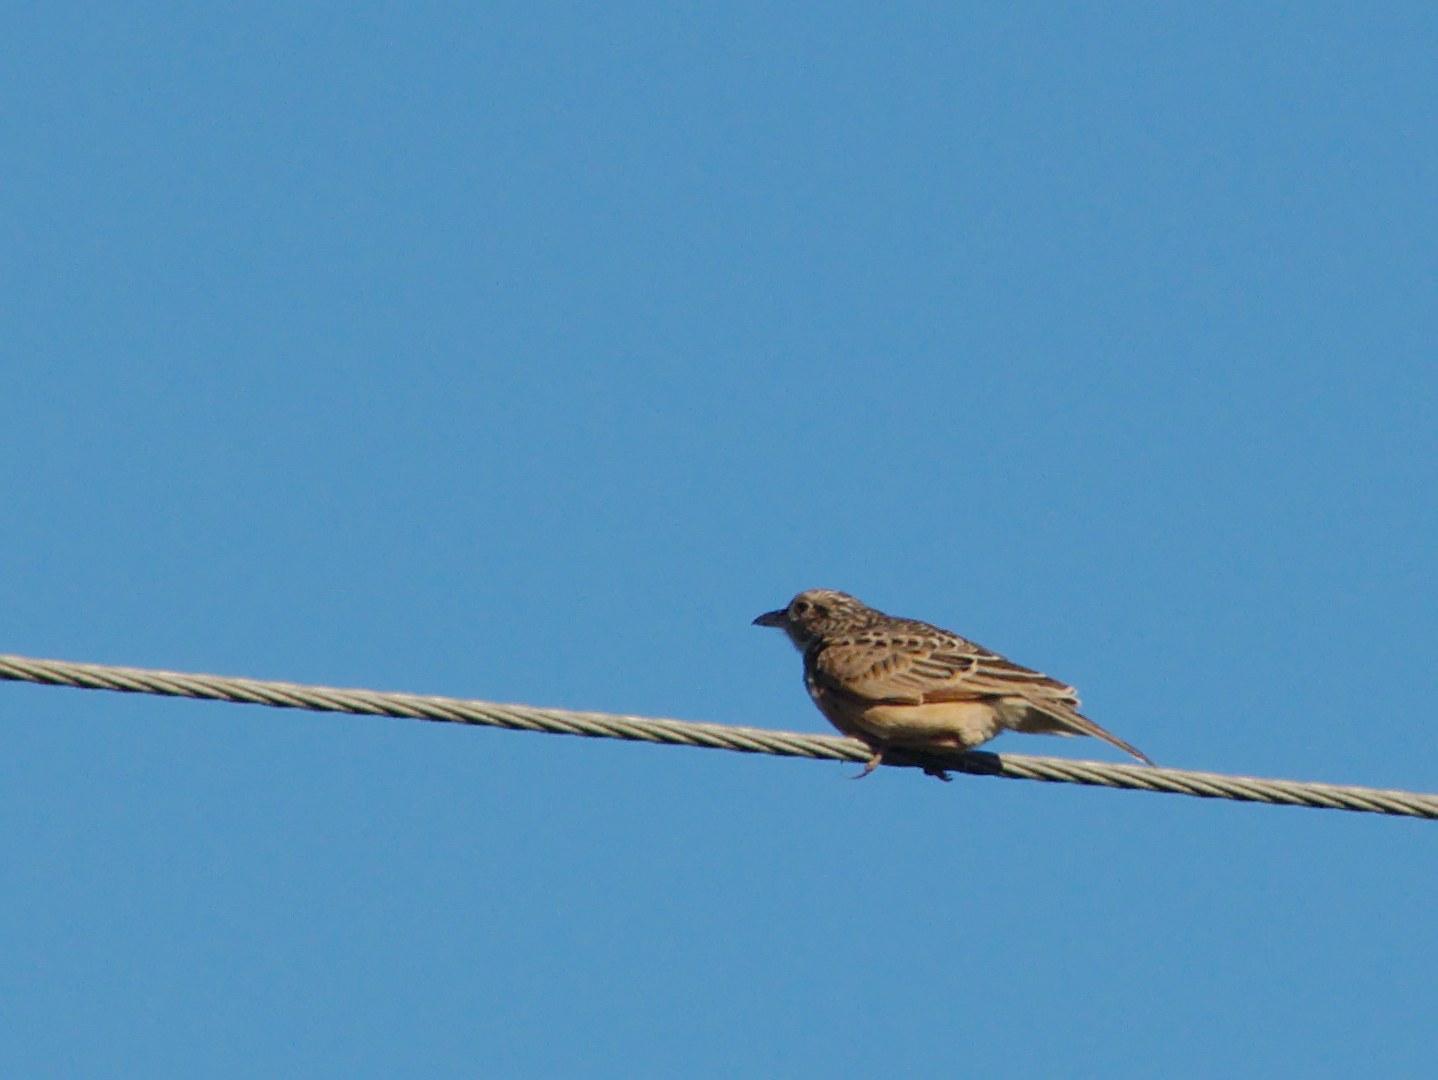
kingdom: Animalia
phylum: Chordata
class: Aves
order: Passeriformes
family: Alaudidae
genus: Mirafra
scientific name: Mirafra africana
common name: Rufous-naped lark
